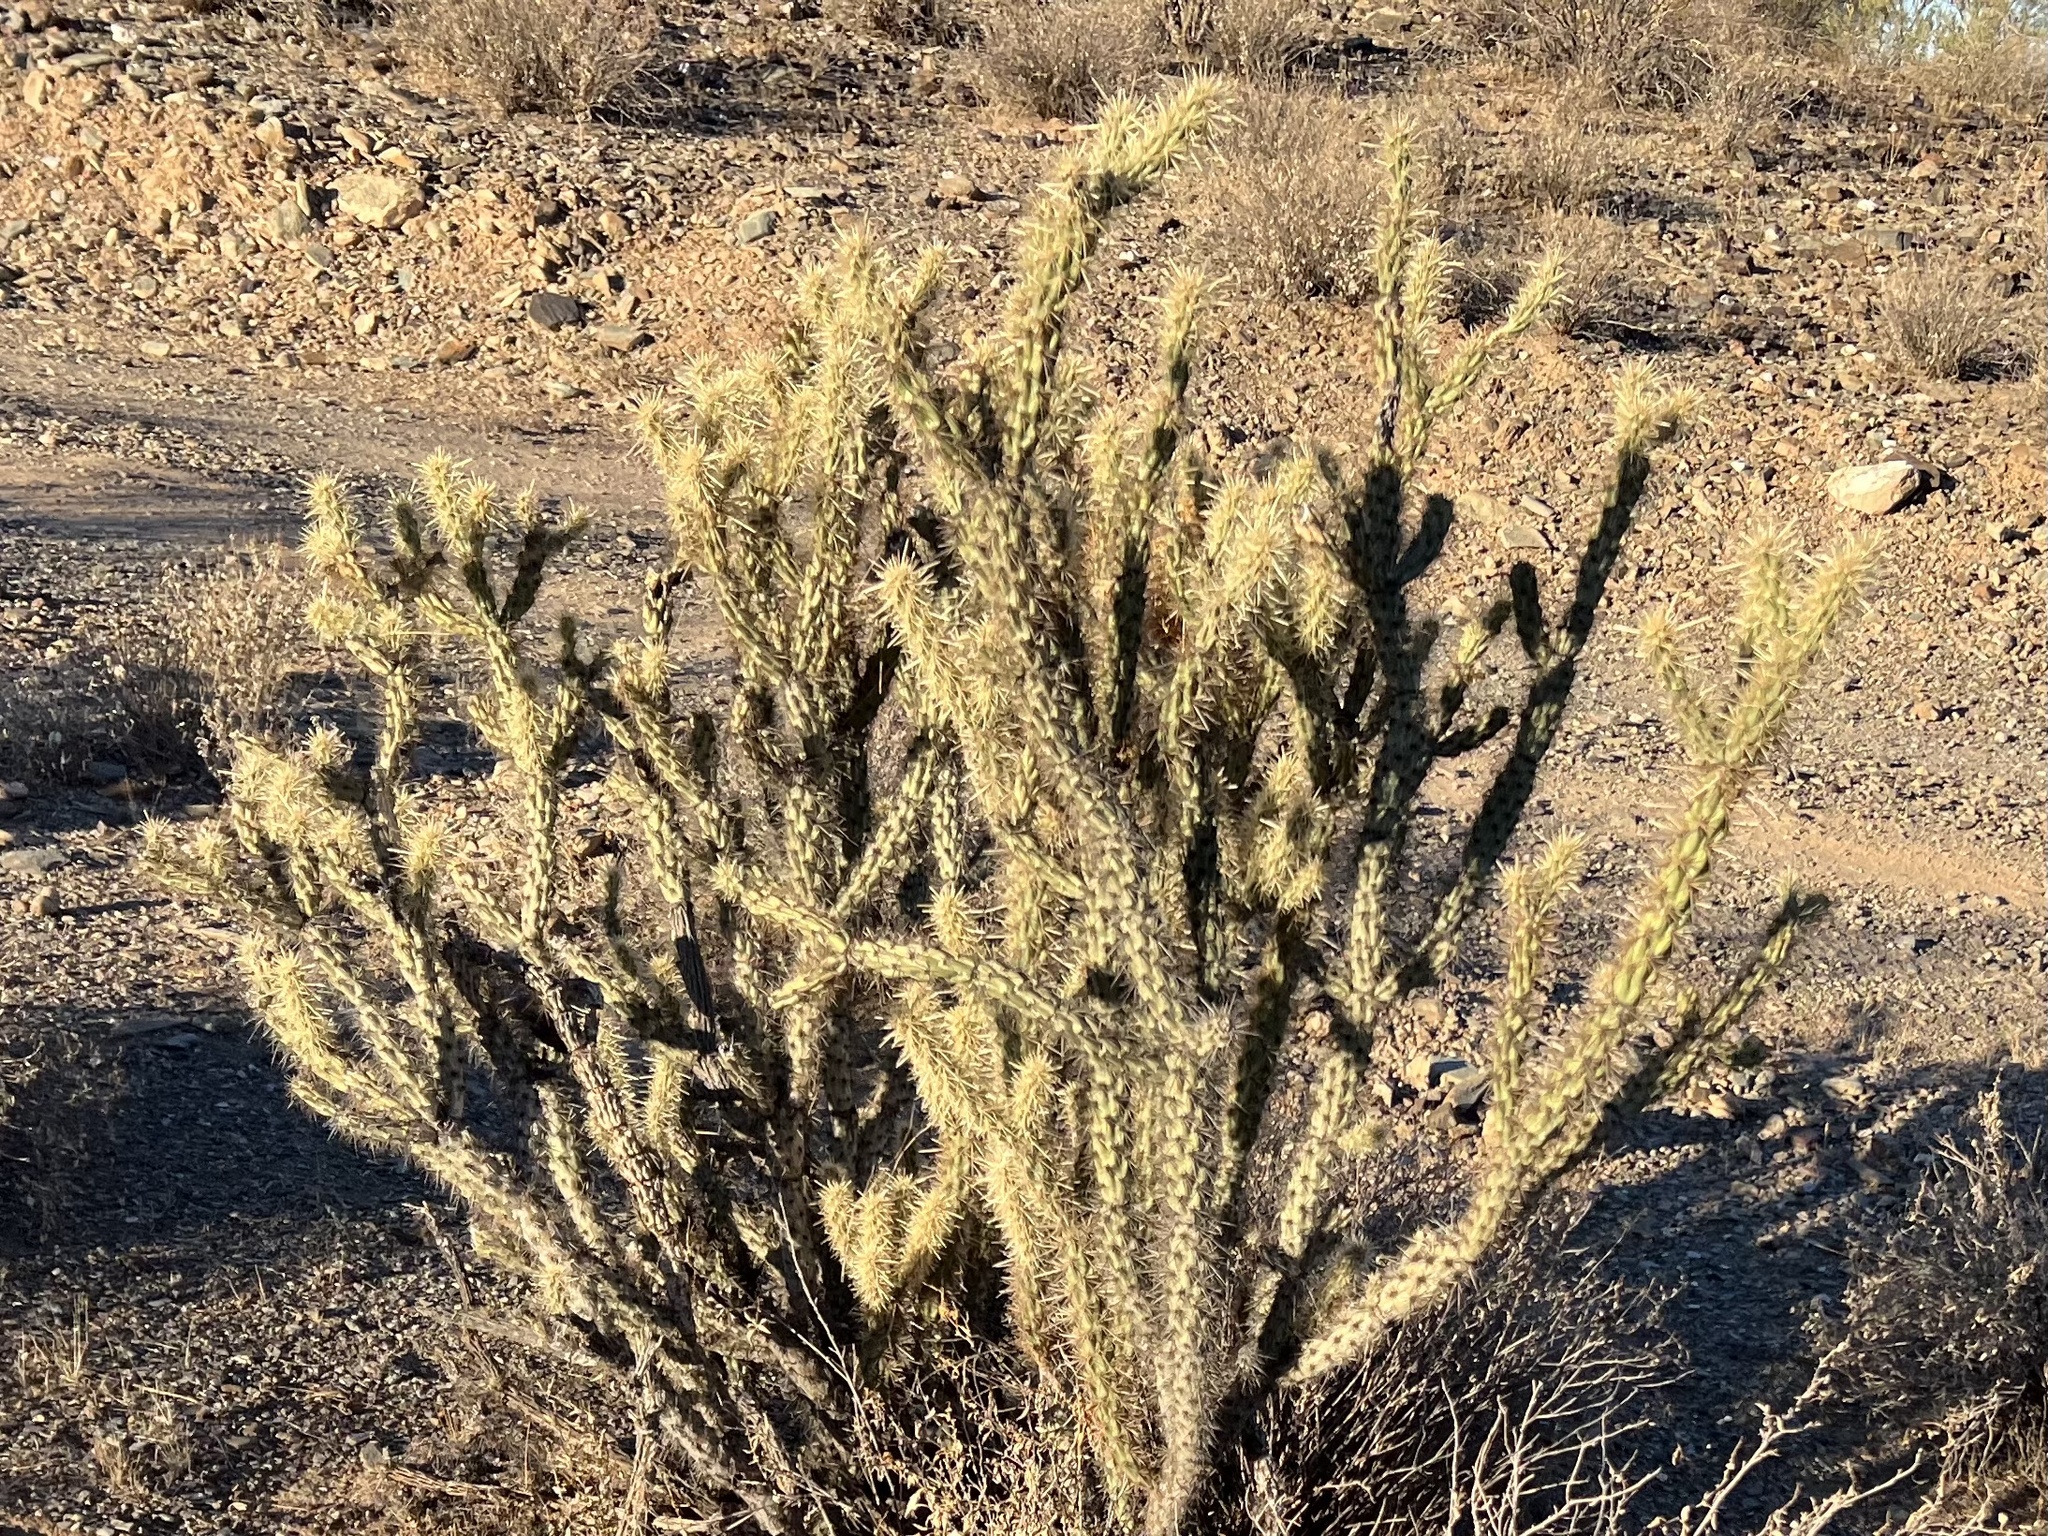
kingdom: Plantae
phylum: Tracheophyta
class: Magnoliopsida
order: Caryophyllales
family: Cactaceae
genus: Cylindropuntia
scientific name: Cylindropuntia acanthocarpa
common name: Buckhorn cholla
